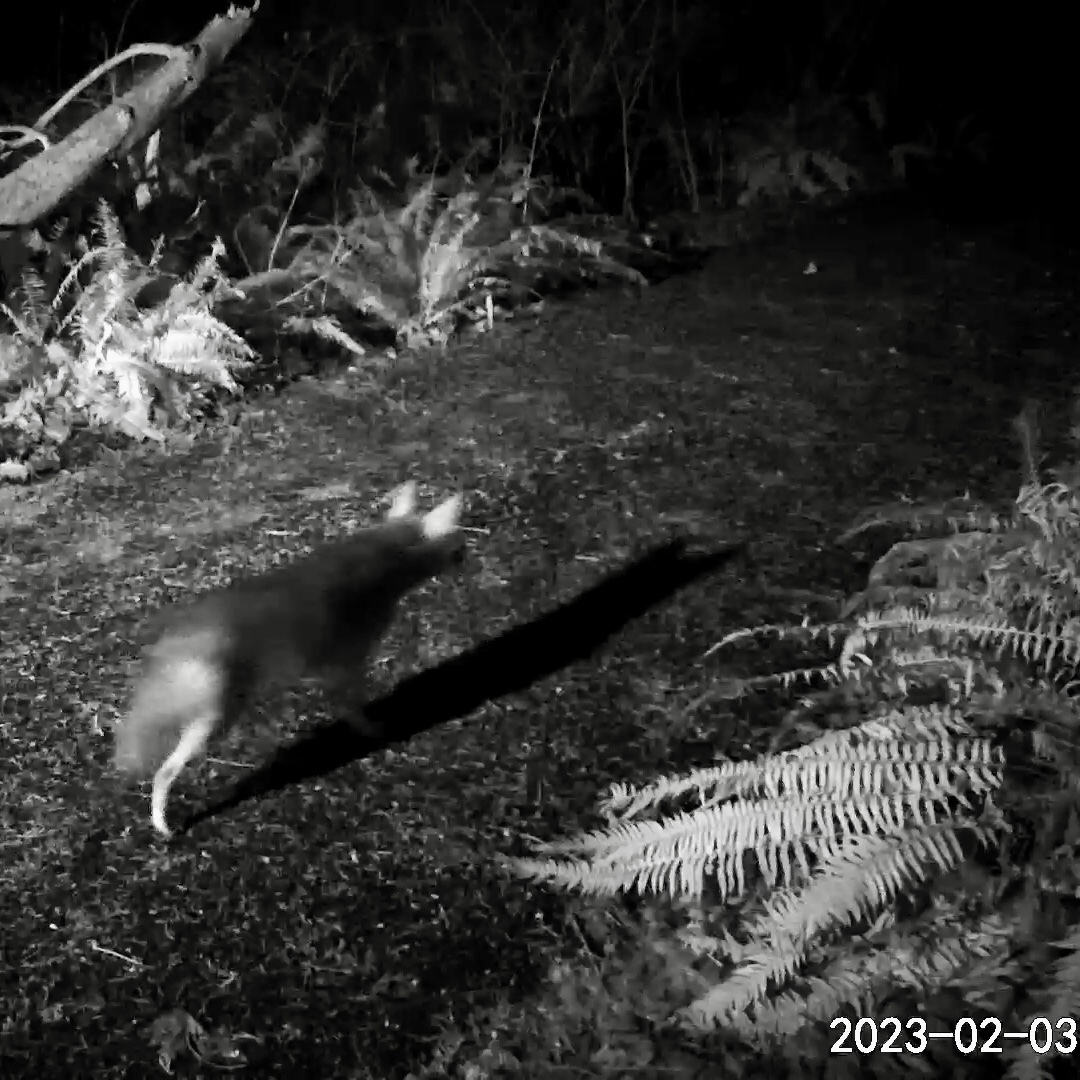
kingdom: Animalia
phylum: Chordata
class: Mammalia
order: Carnivora
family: Canidae
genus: Canis
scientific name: Canis latrans
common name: Coyote
